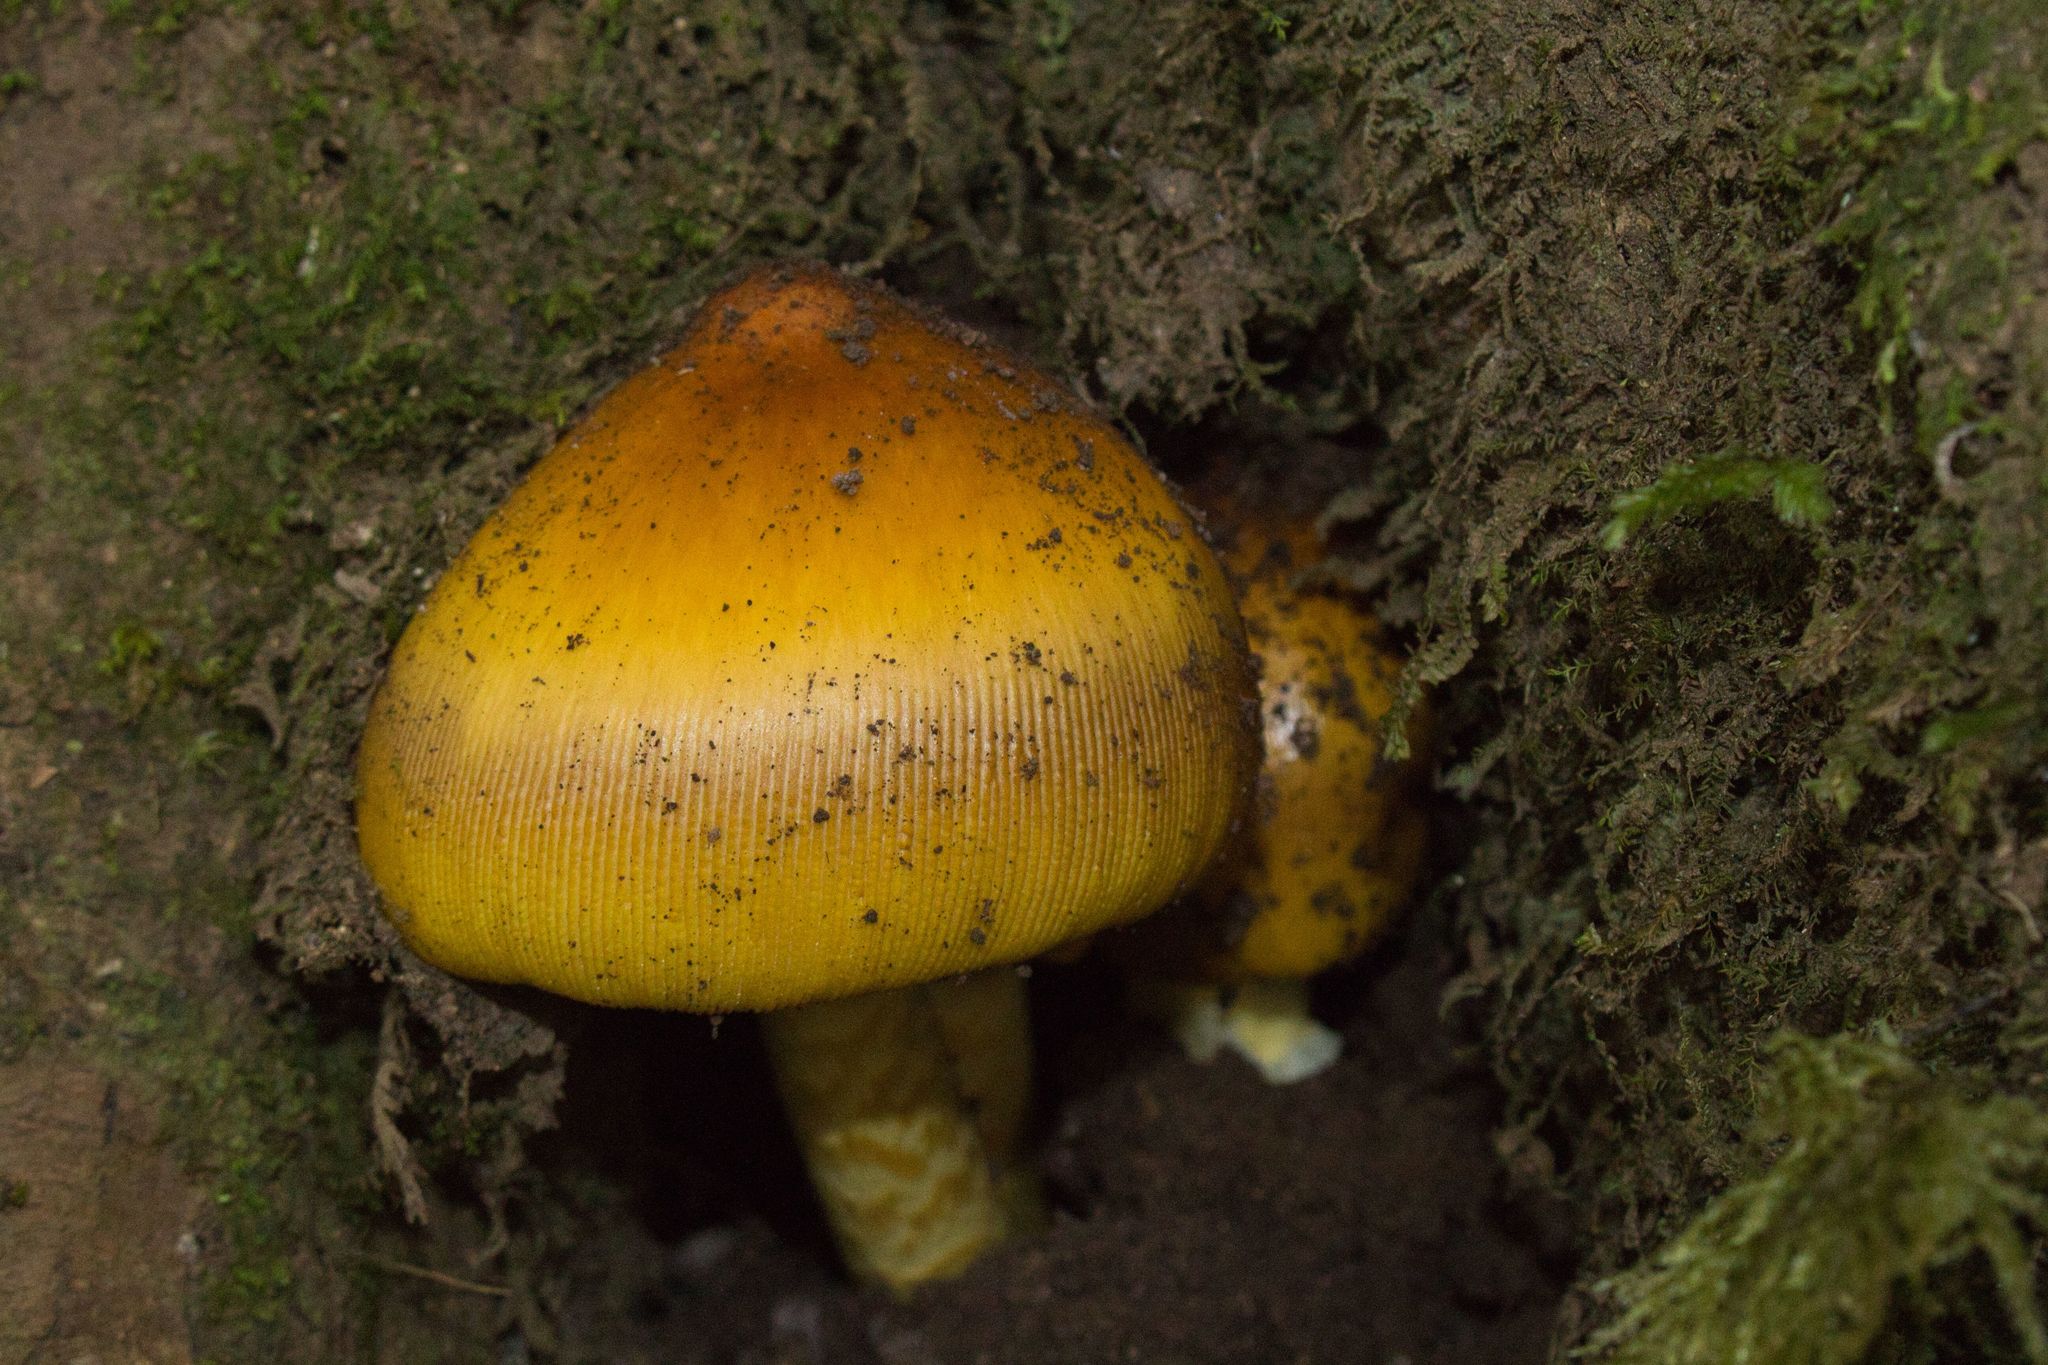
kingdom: Fungi
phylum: Basidiomycota
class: Agaricomycetes
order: Agaricales
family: Amanitaceae
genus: Amanita
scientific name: Amanita garabitoana
